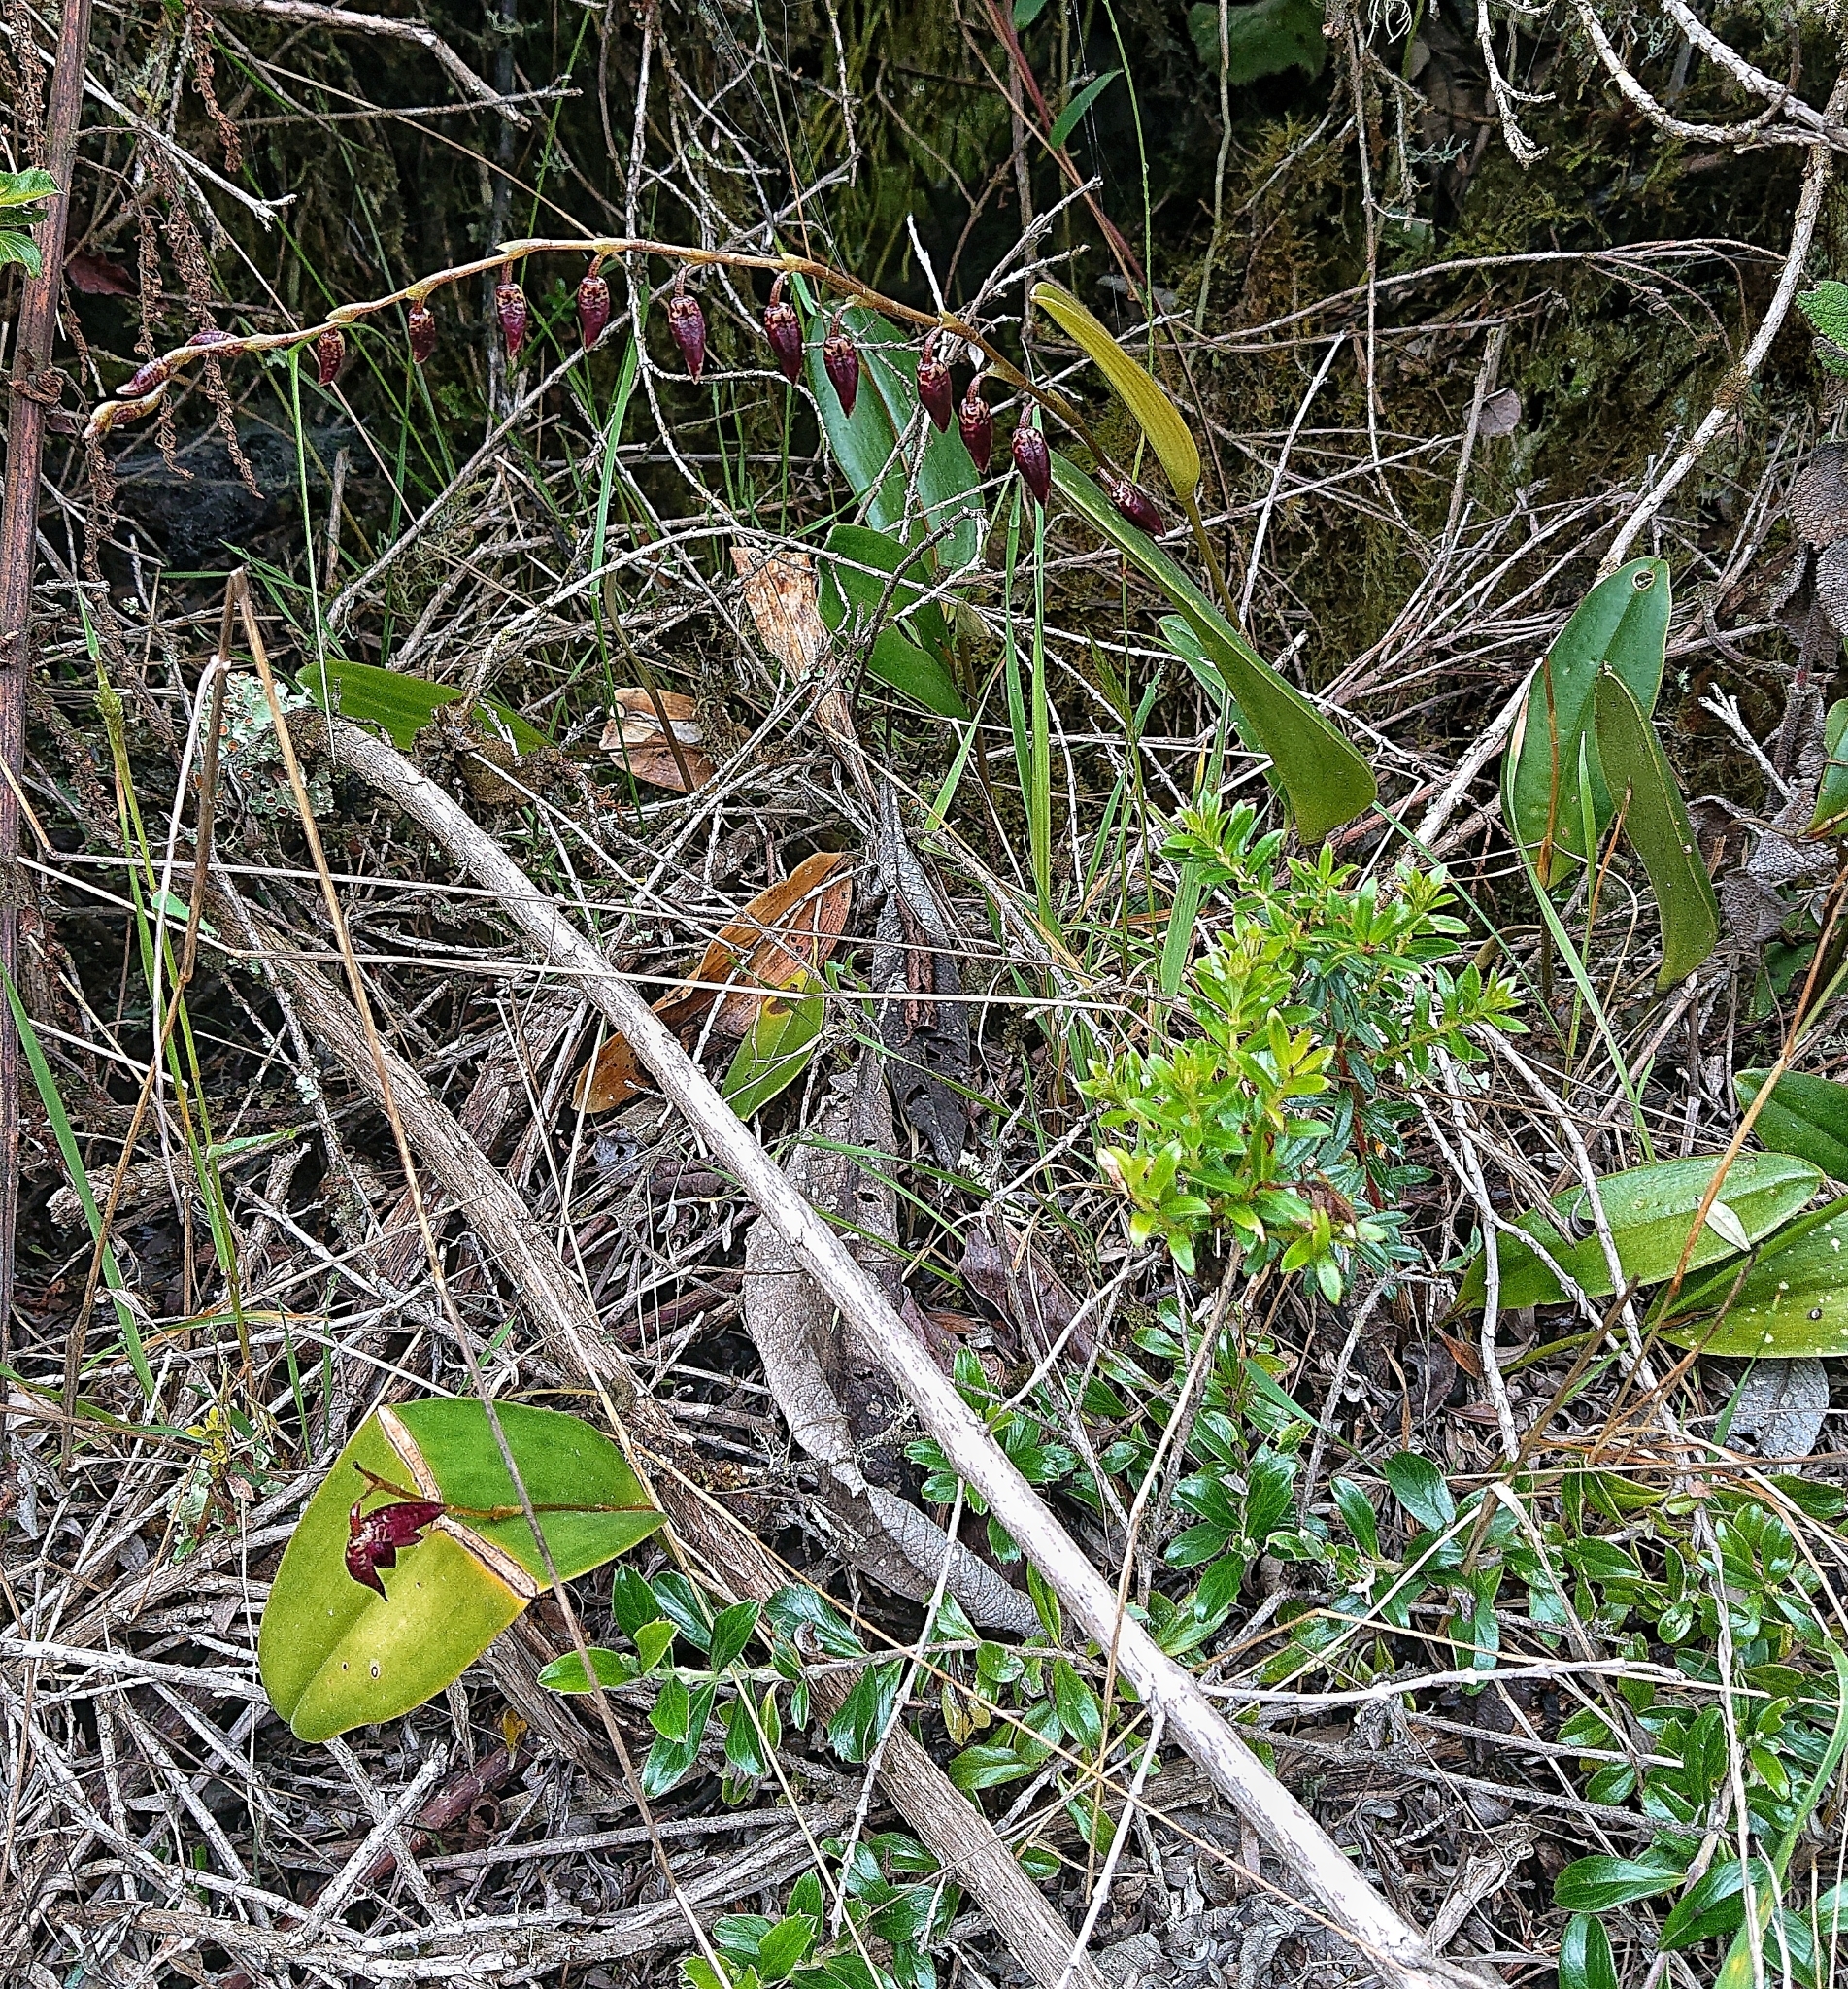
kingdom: Plantae
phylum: Tracheophyta
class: Liliopsida
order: Asparagales
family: Orchidaceae
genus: Pleurothallis
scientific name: Pleurothallis restrepioides
